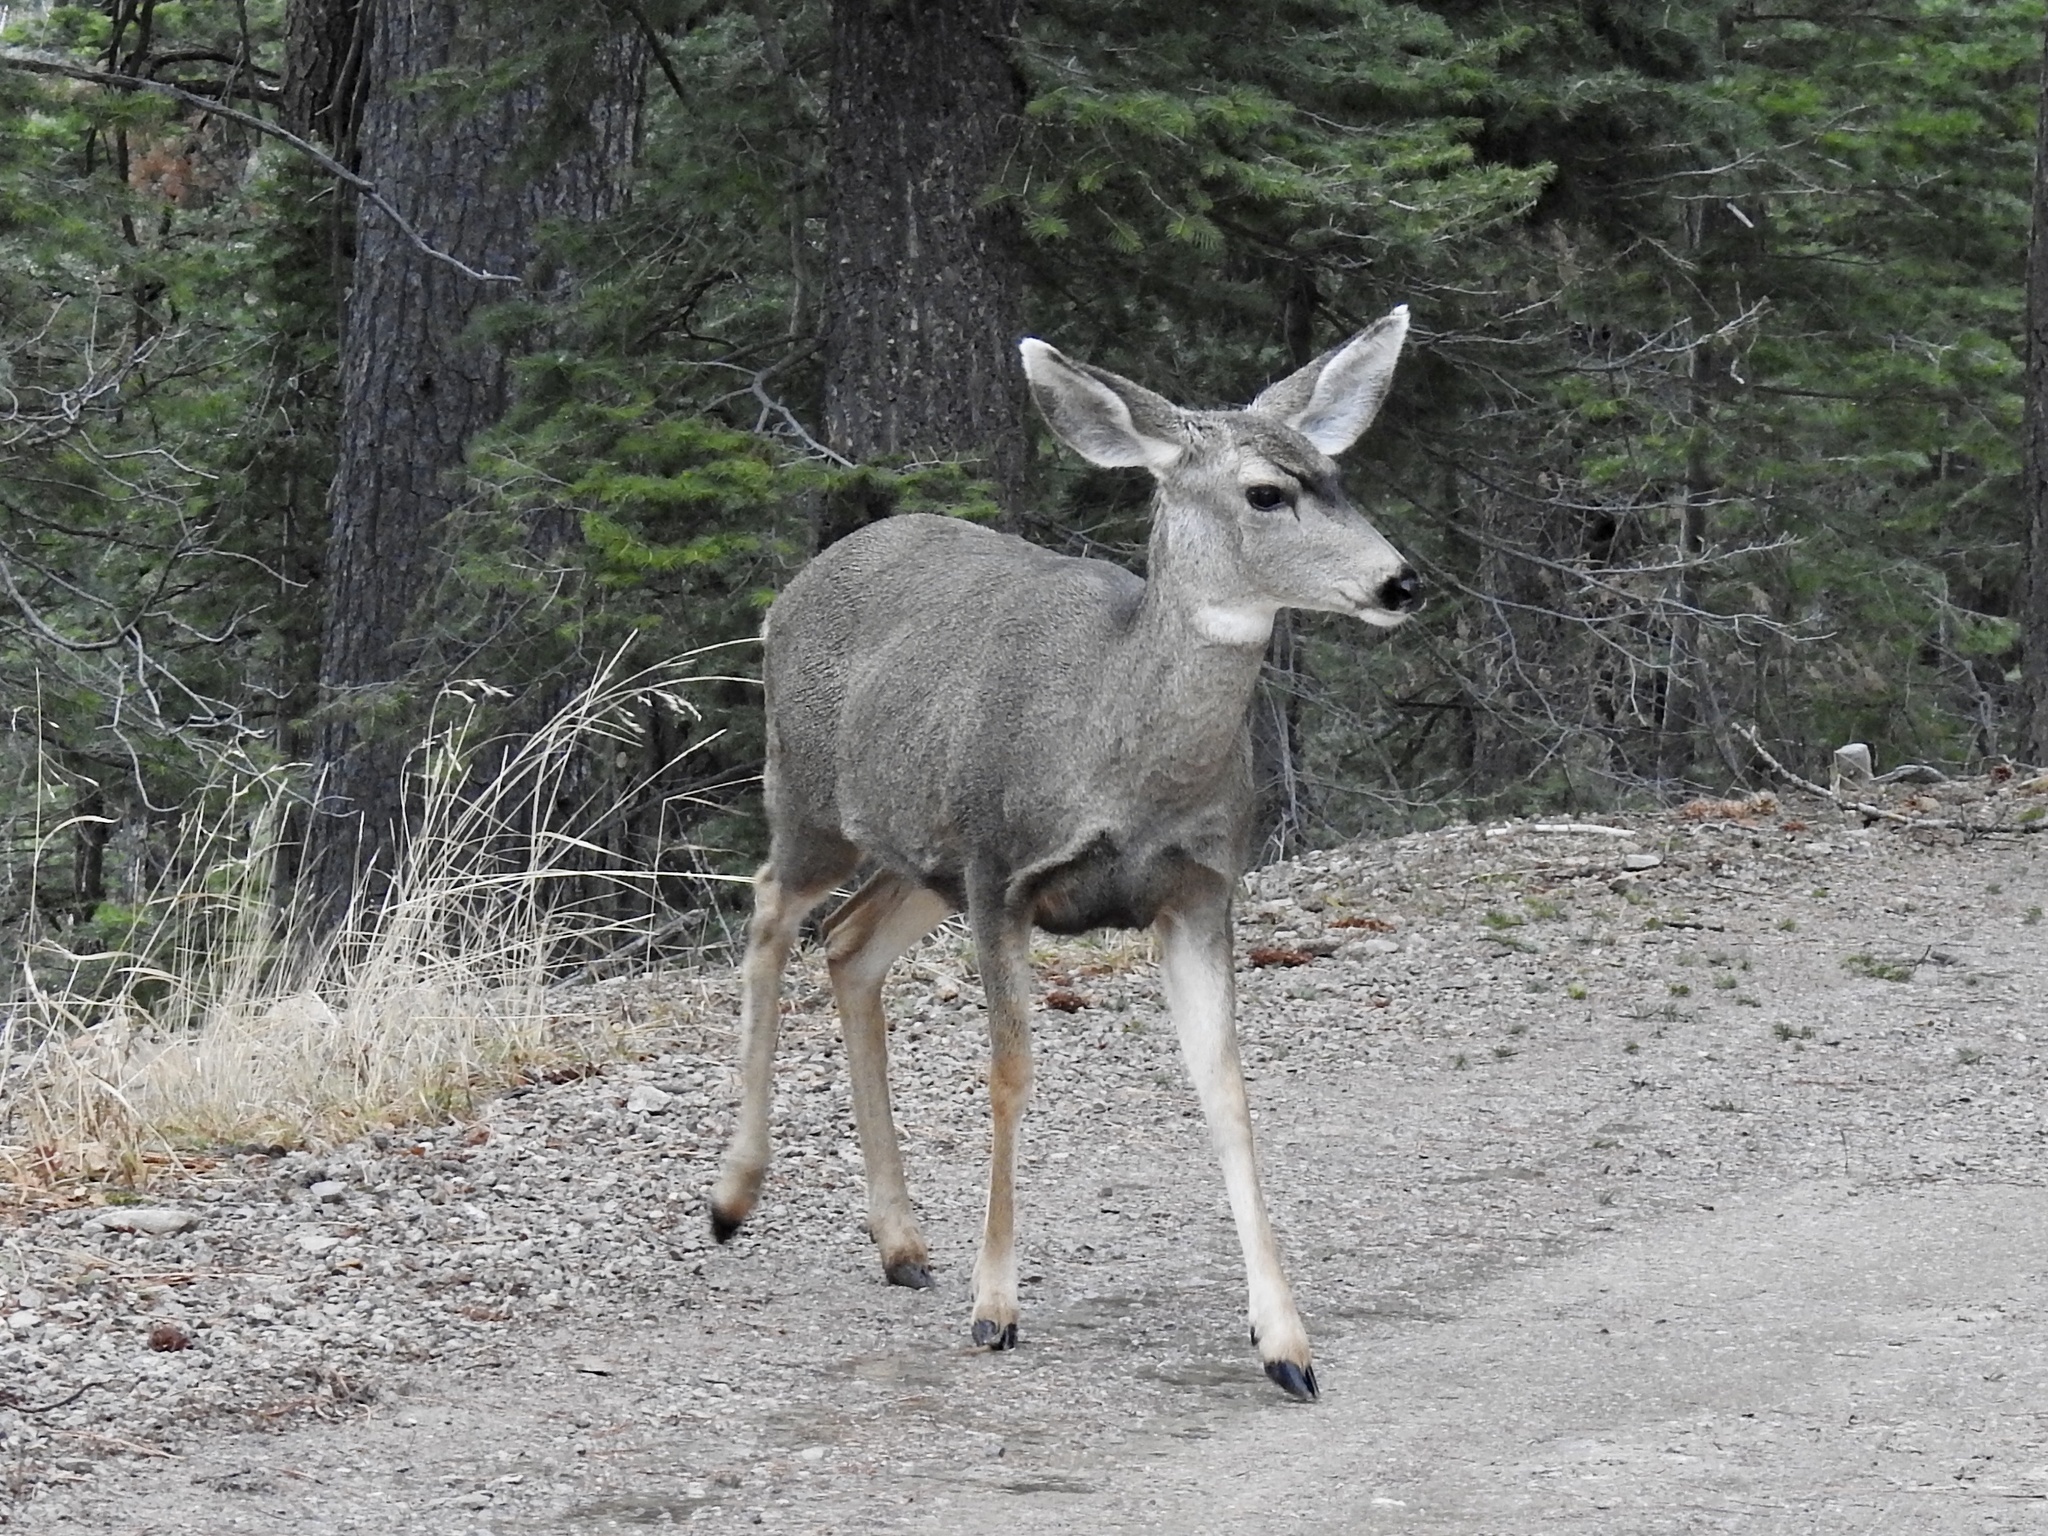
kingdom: Animalia
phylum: Chordata
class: Mammalia
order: Artiodactyla
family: Cervidae
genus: Odocoileus
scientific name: Odocoileus hemionus
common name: Mule deer
